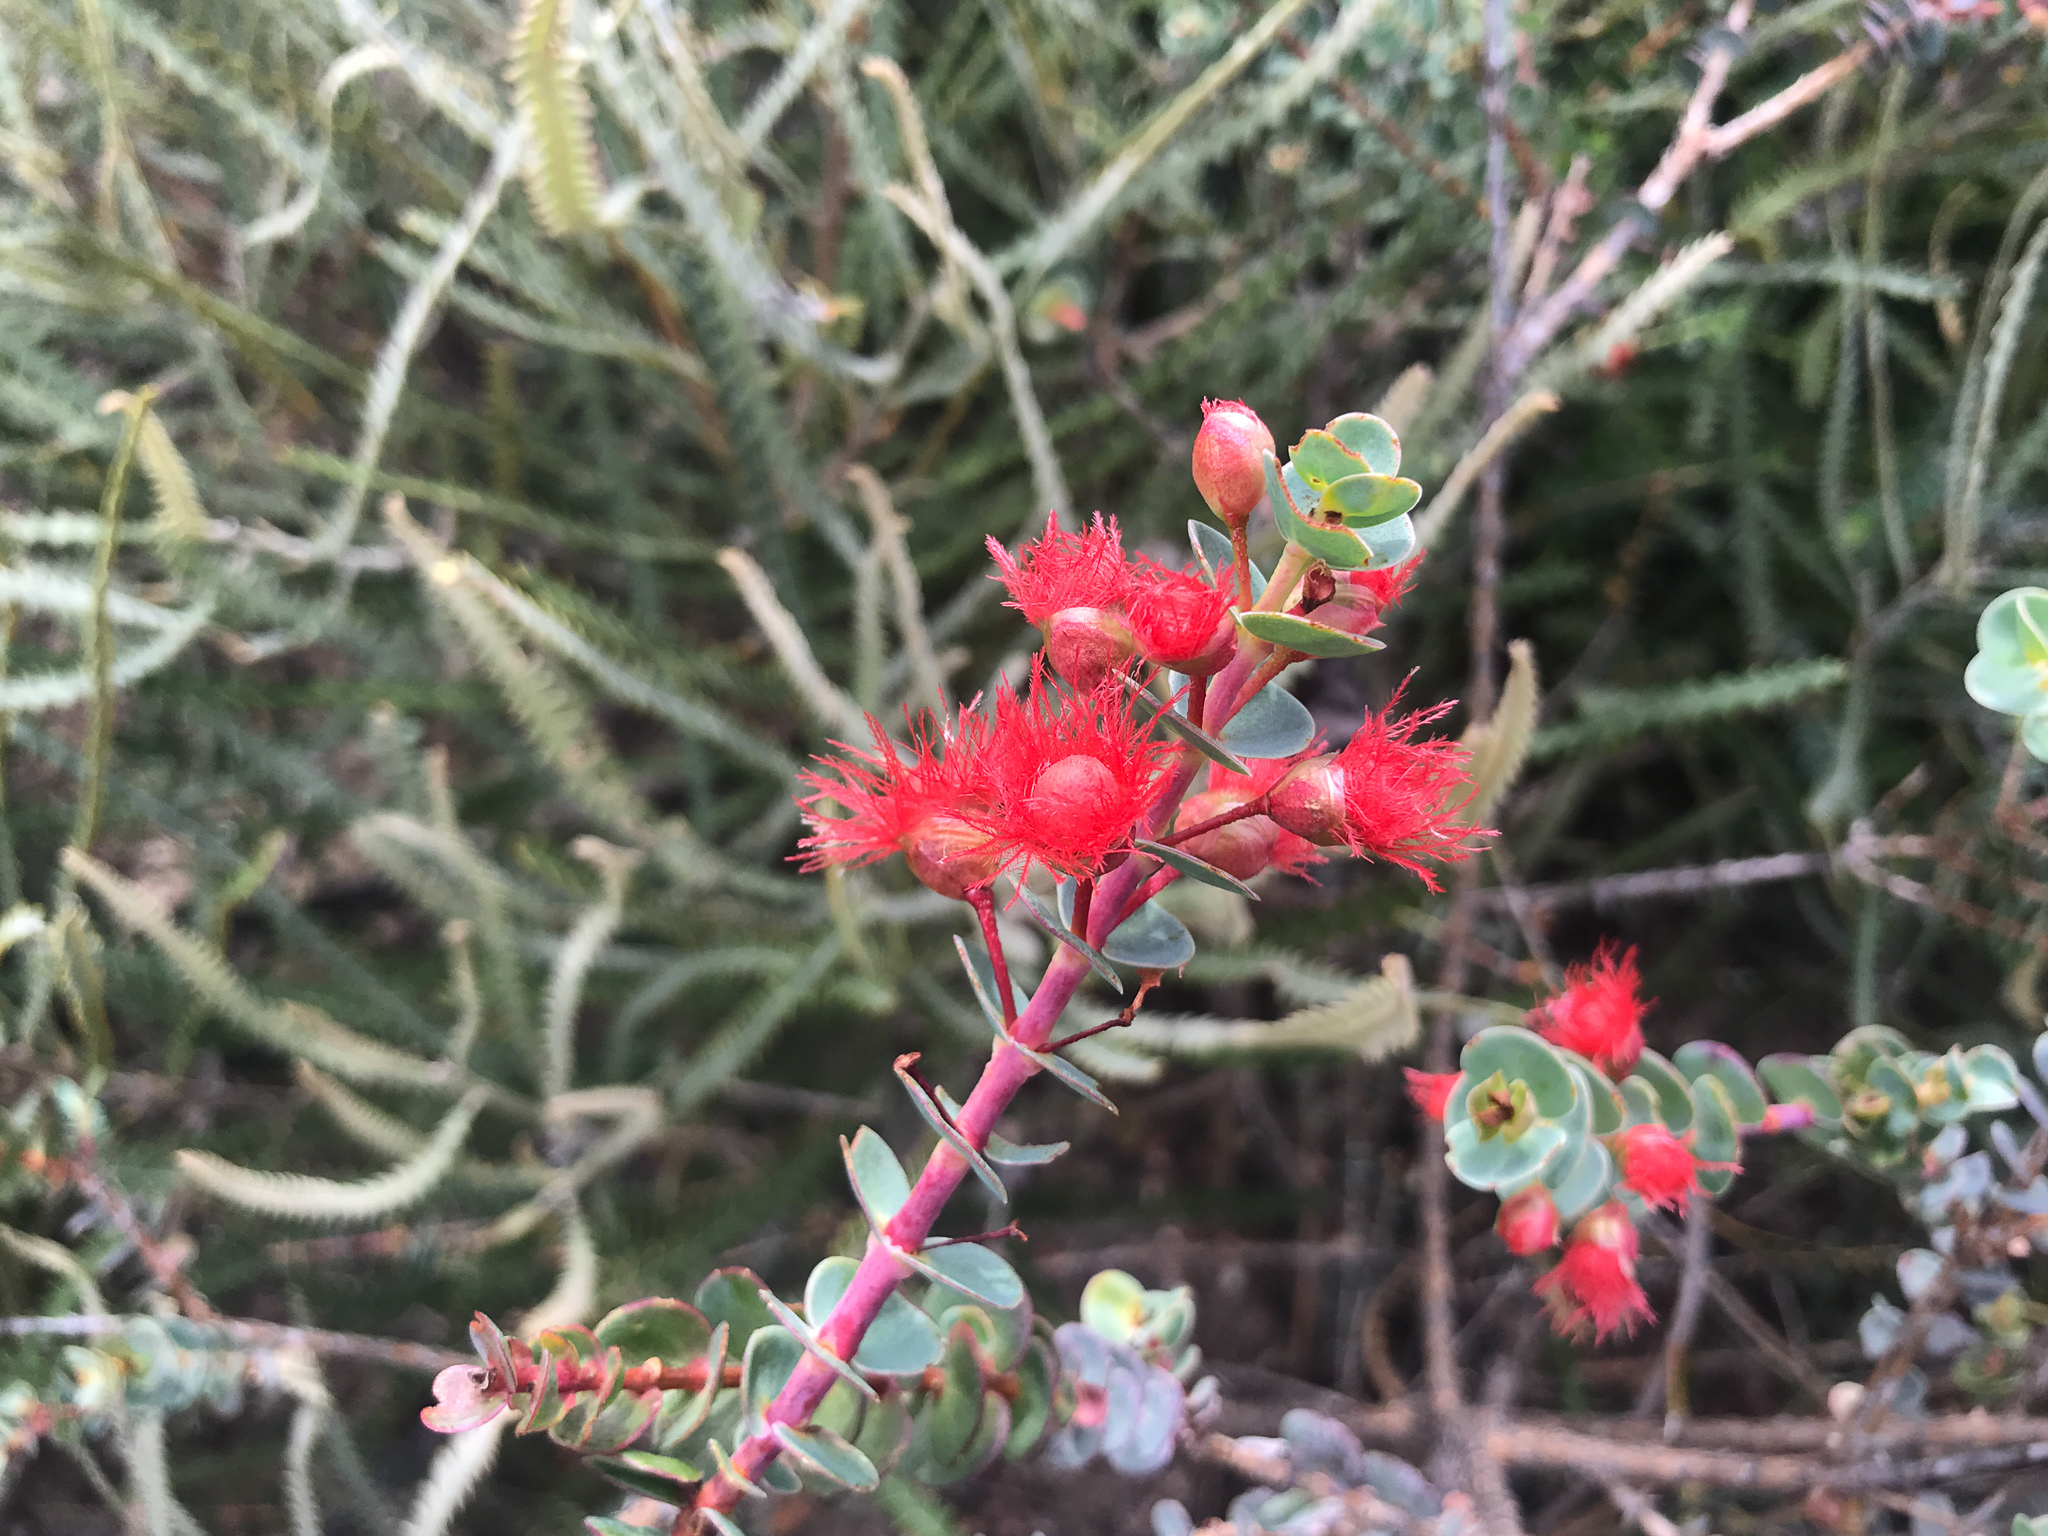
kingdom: Plantae
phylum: Tracheophyta
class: Magnoliopsida
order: Myrtales
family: Myrtaceae
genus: Verticordia
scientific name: Verticordia grandis
